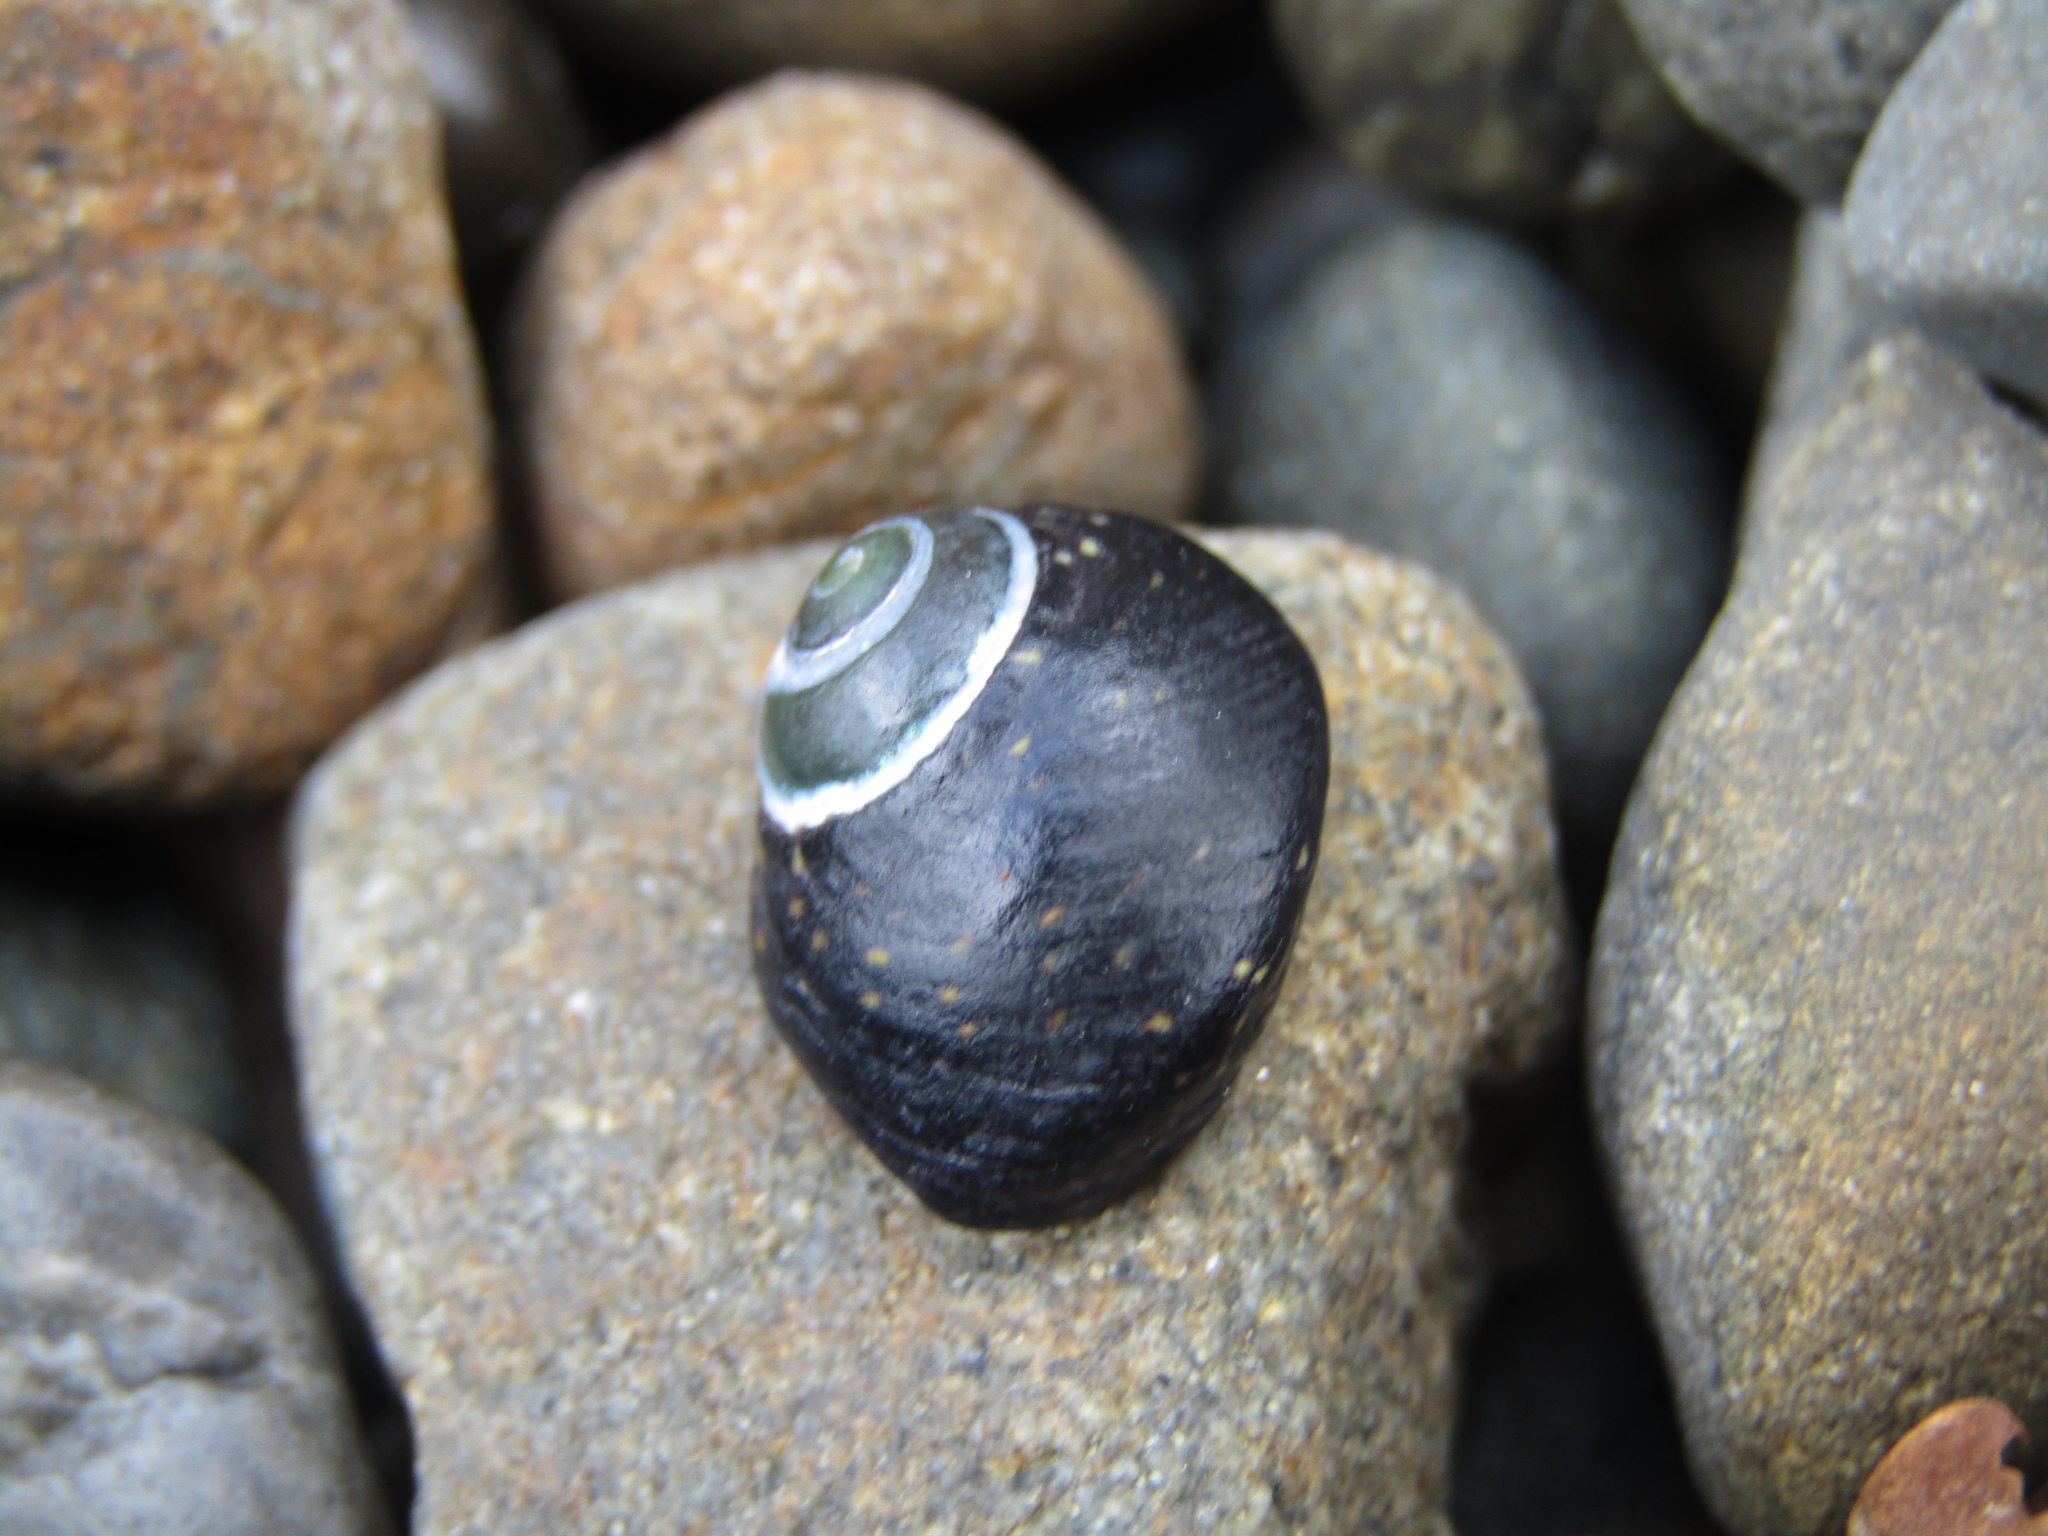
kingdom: Animalia
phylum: Mollusca
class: Gastropoda
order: Trochida
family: Trochidae
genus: Diloma
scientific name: Diloma aridum
